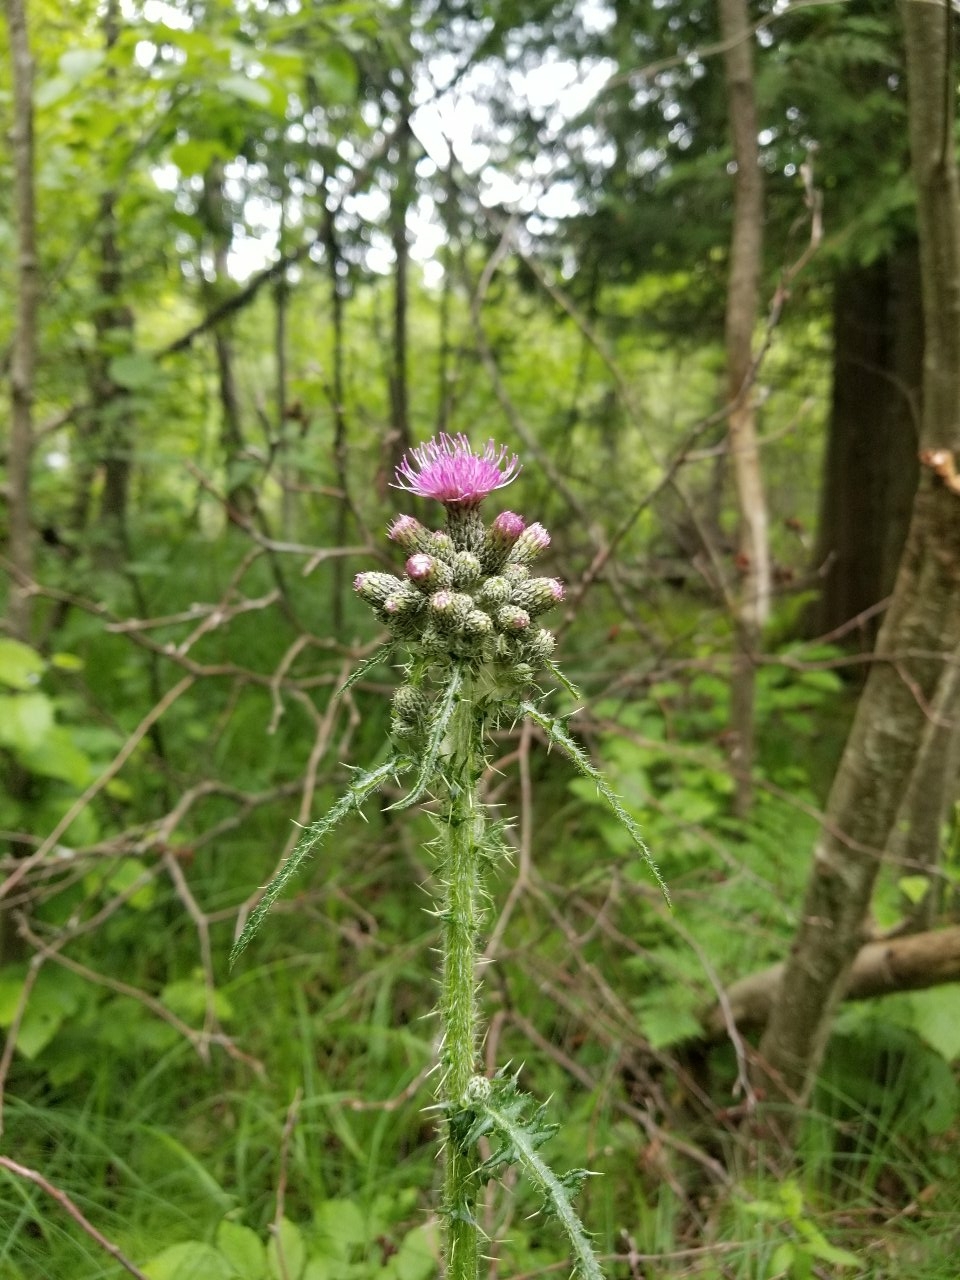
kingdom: Plantae
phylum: Tracheophyta
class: Magnoliopsida
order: Asterales
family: Asteraceae
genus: Cirsium
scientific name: Cirsium palustre
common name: Marsh thistle
